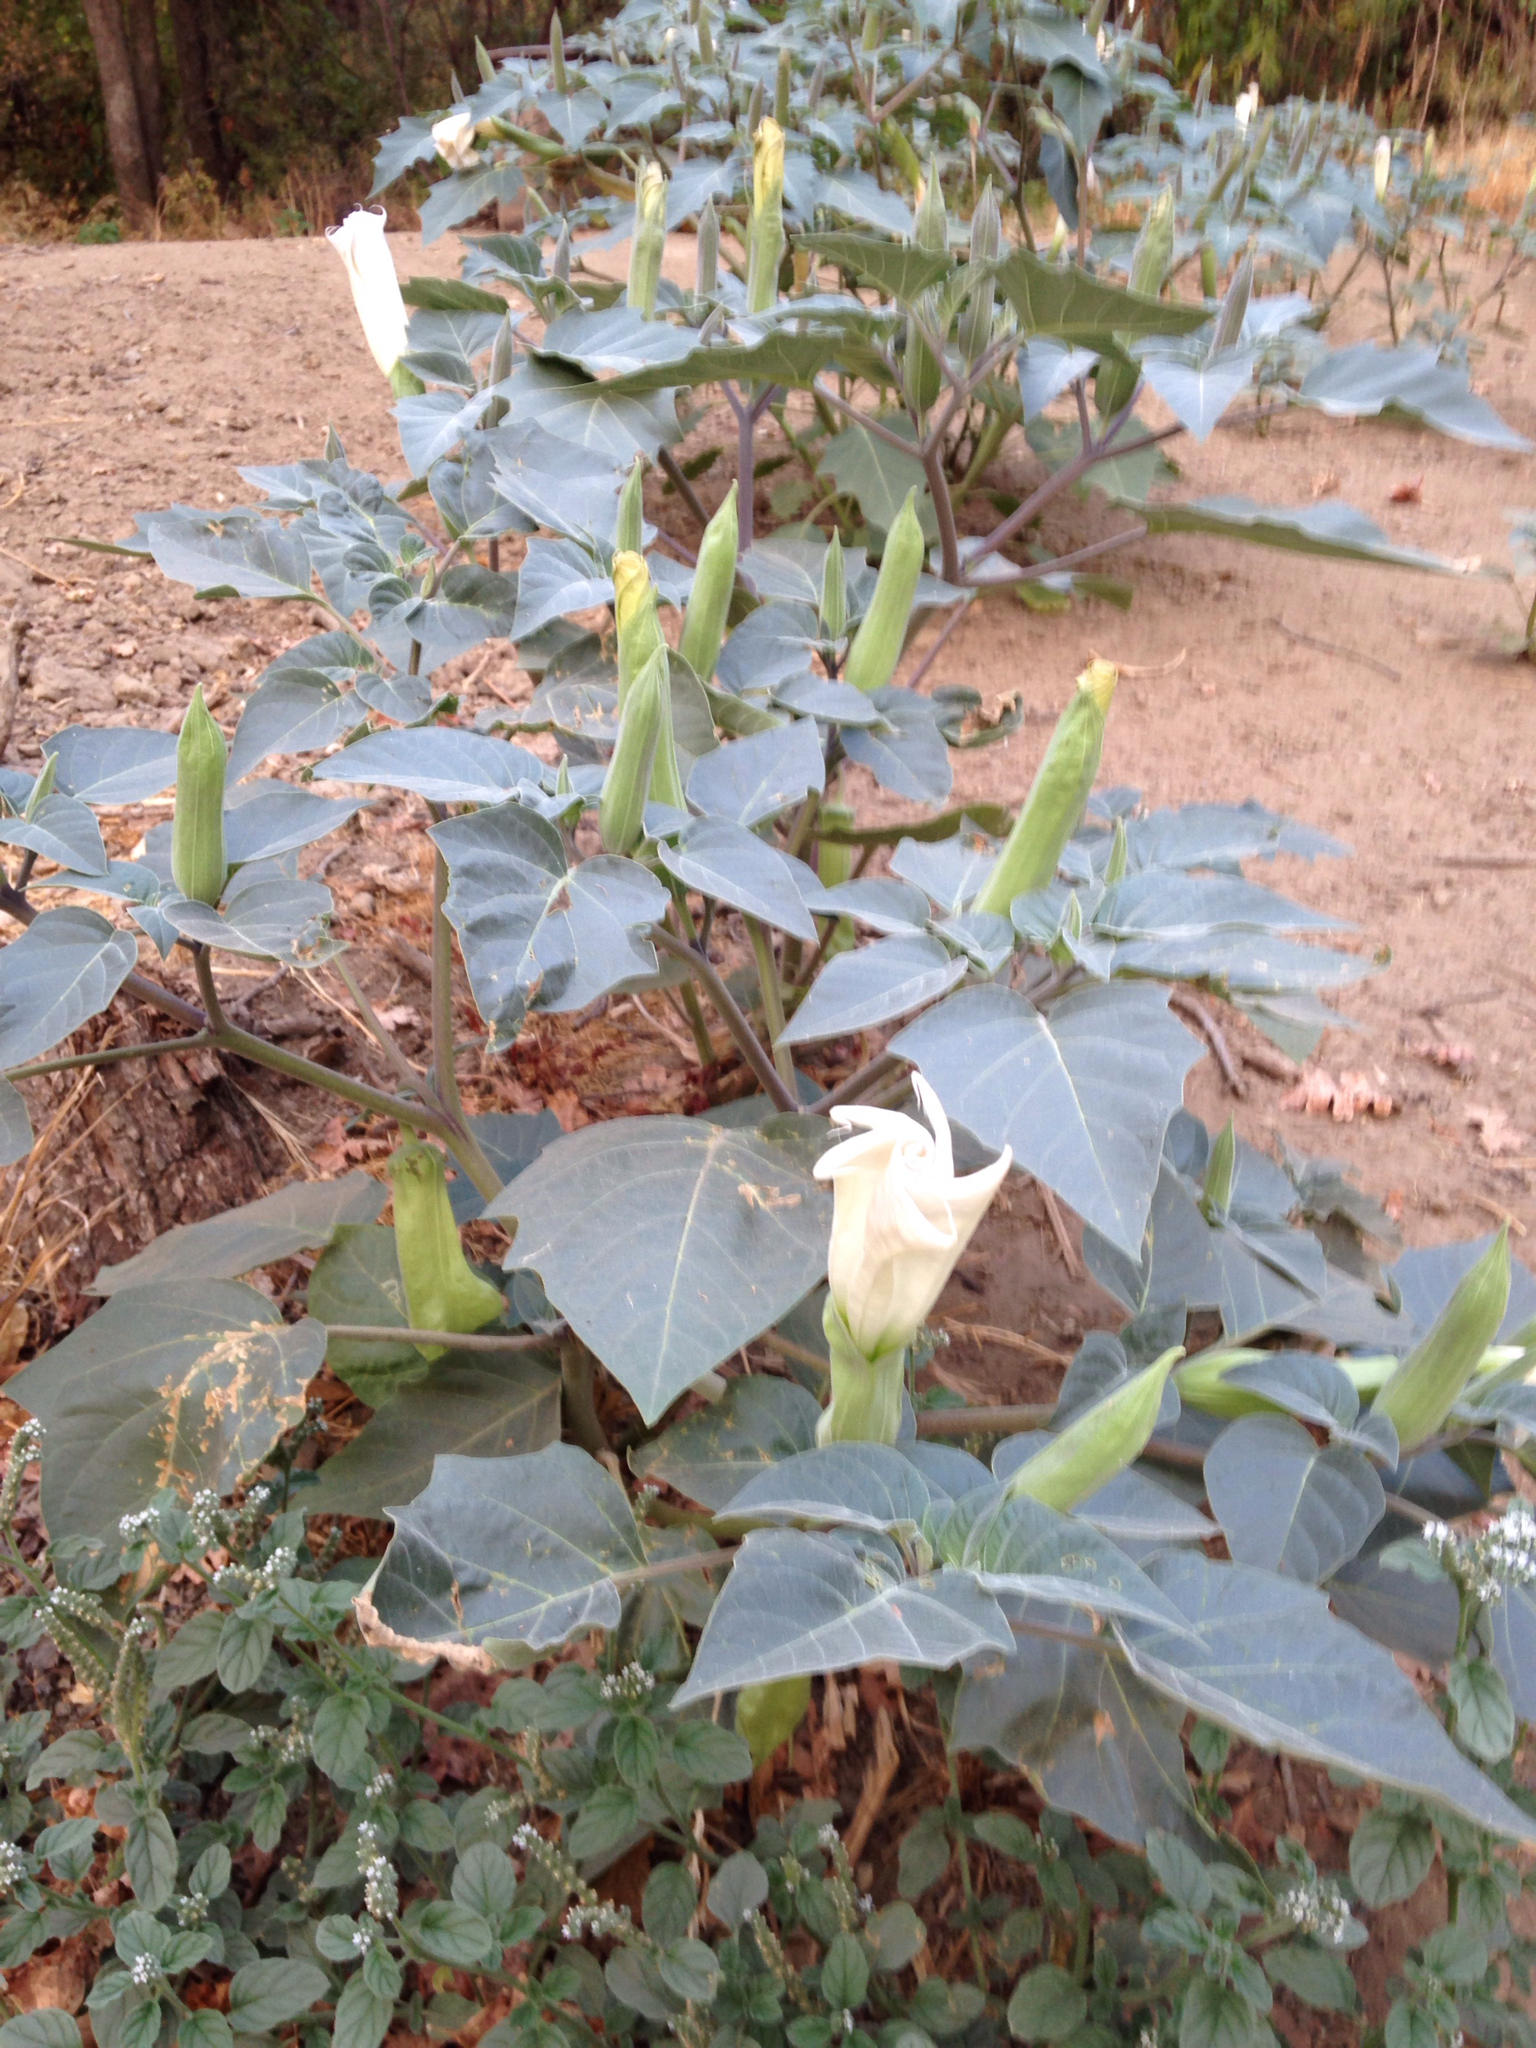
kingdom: Plantae
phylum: Tracheophyta
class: Magnoliopsida
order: Solanales
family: Solanaceae
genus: Datura
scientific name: Datura wrightii
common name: Sacred thorn-apple
